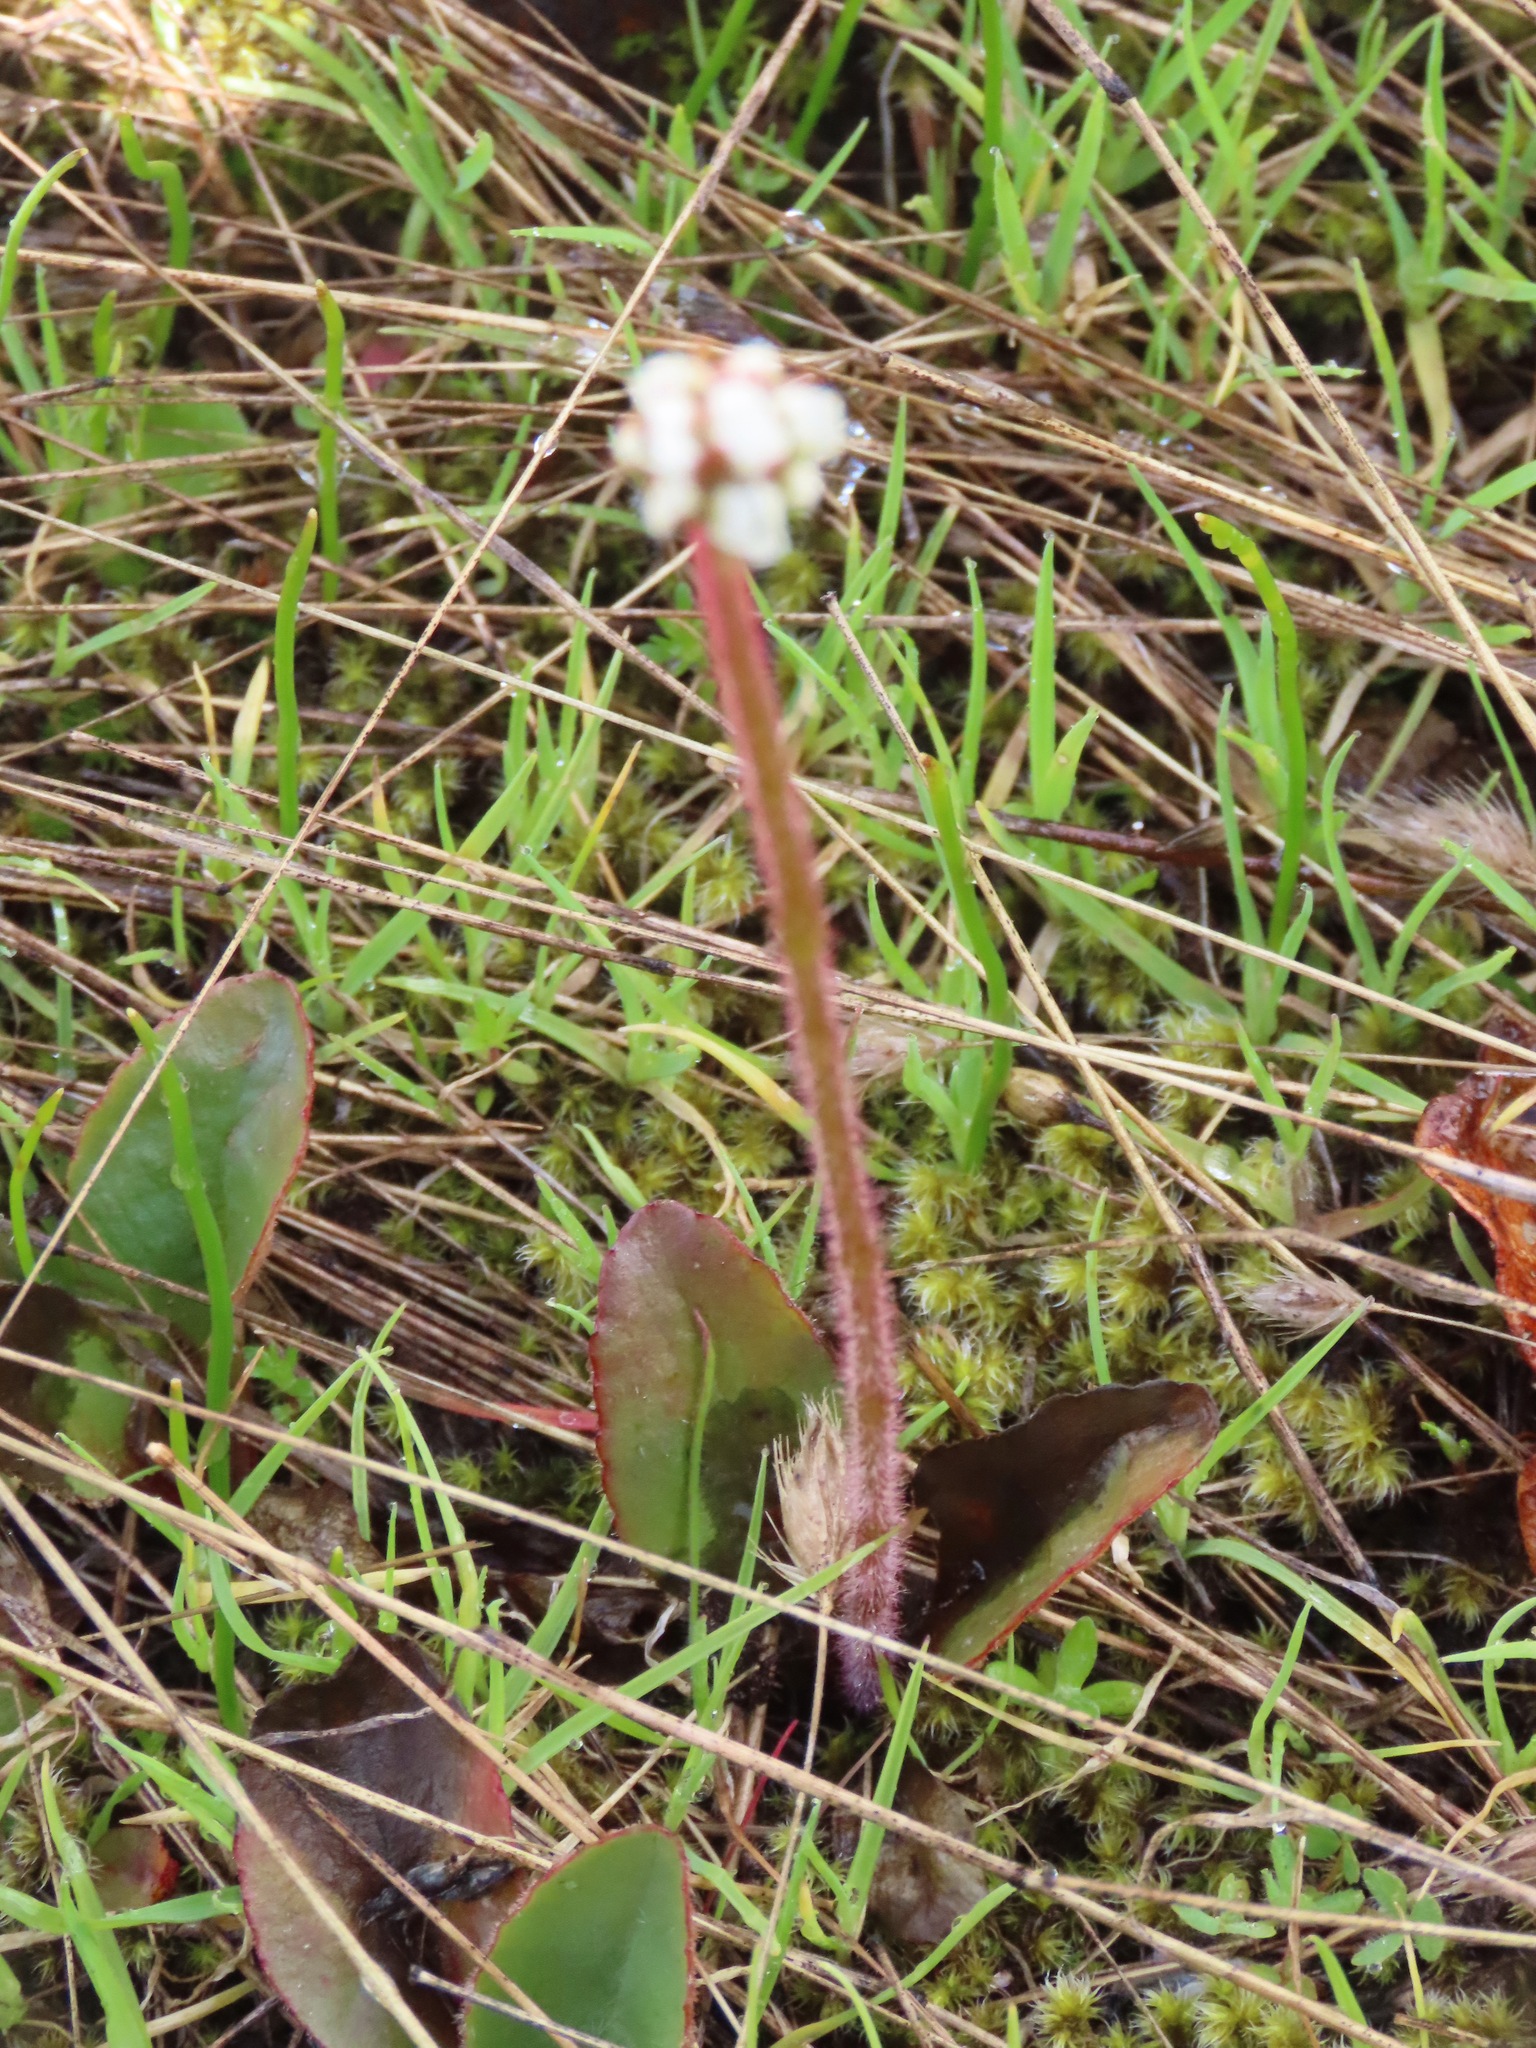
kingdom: Plantae
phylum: Tracheophyta
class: Magnoliopsida
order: Saxifragales
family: Saxifragaceae
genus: Micranthes
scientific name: Micranthes integrifolia
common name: Wholeleaf saxifrage
